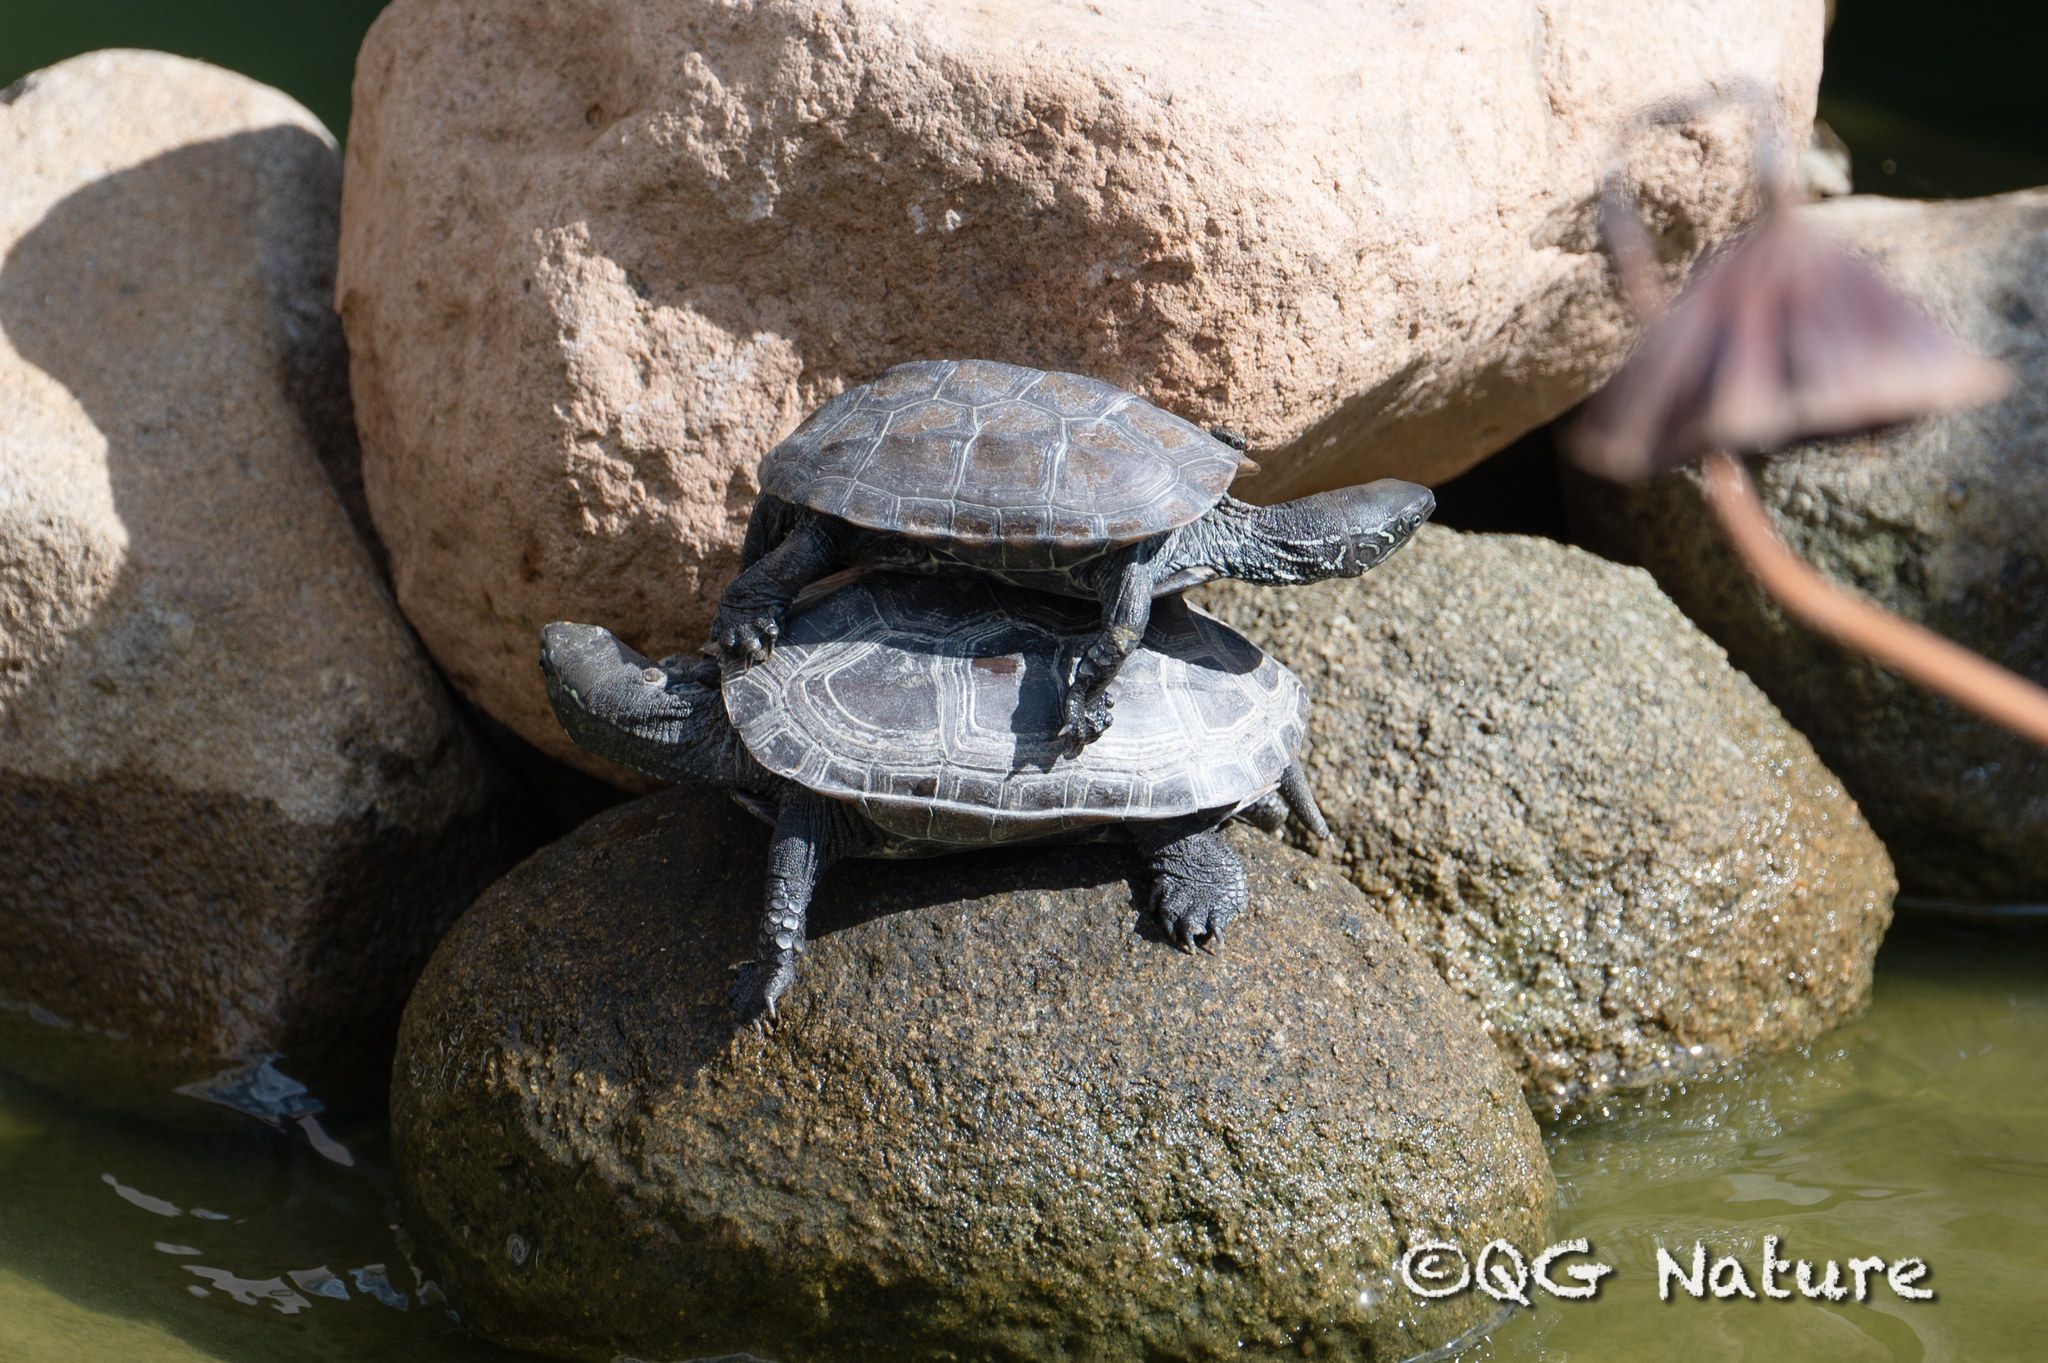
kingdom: Animalia
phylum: Chordata
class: Testudines
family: Geoemydidae
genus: Mauremys
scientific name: Mauremys reevesii
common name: Chinese pond turtle
